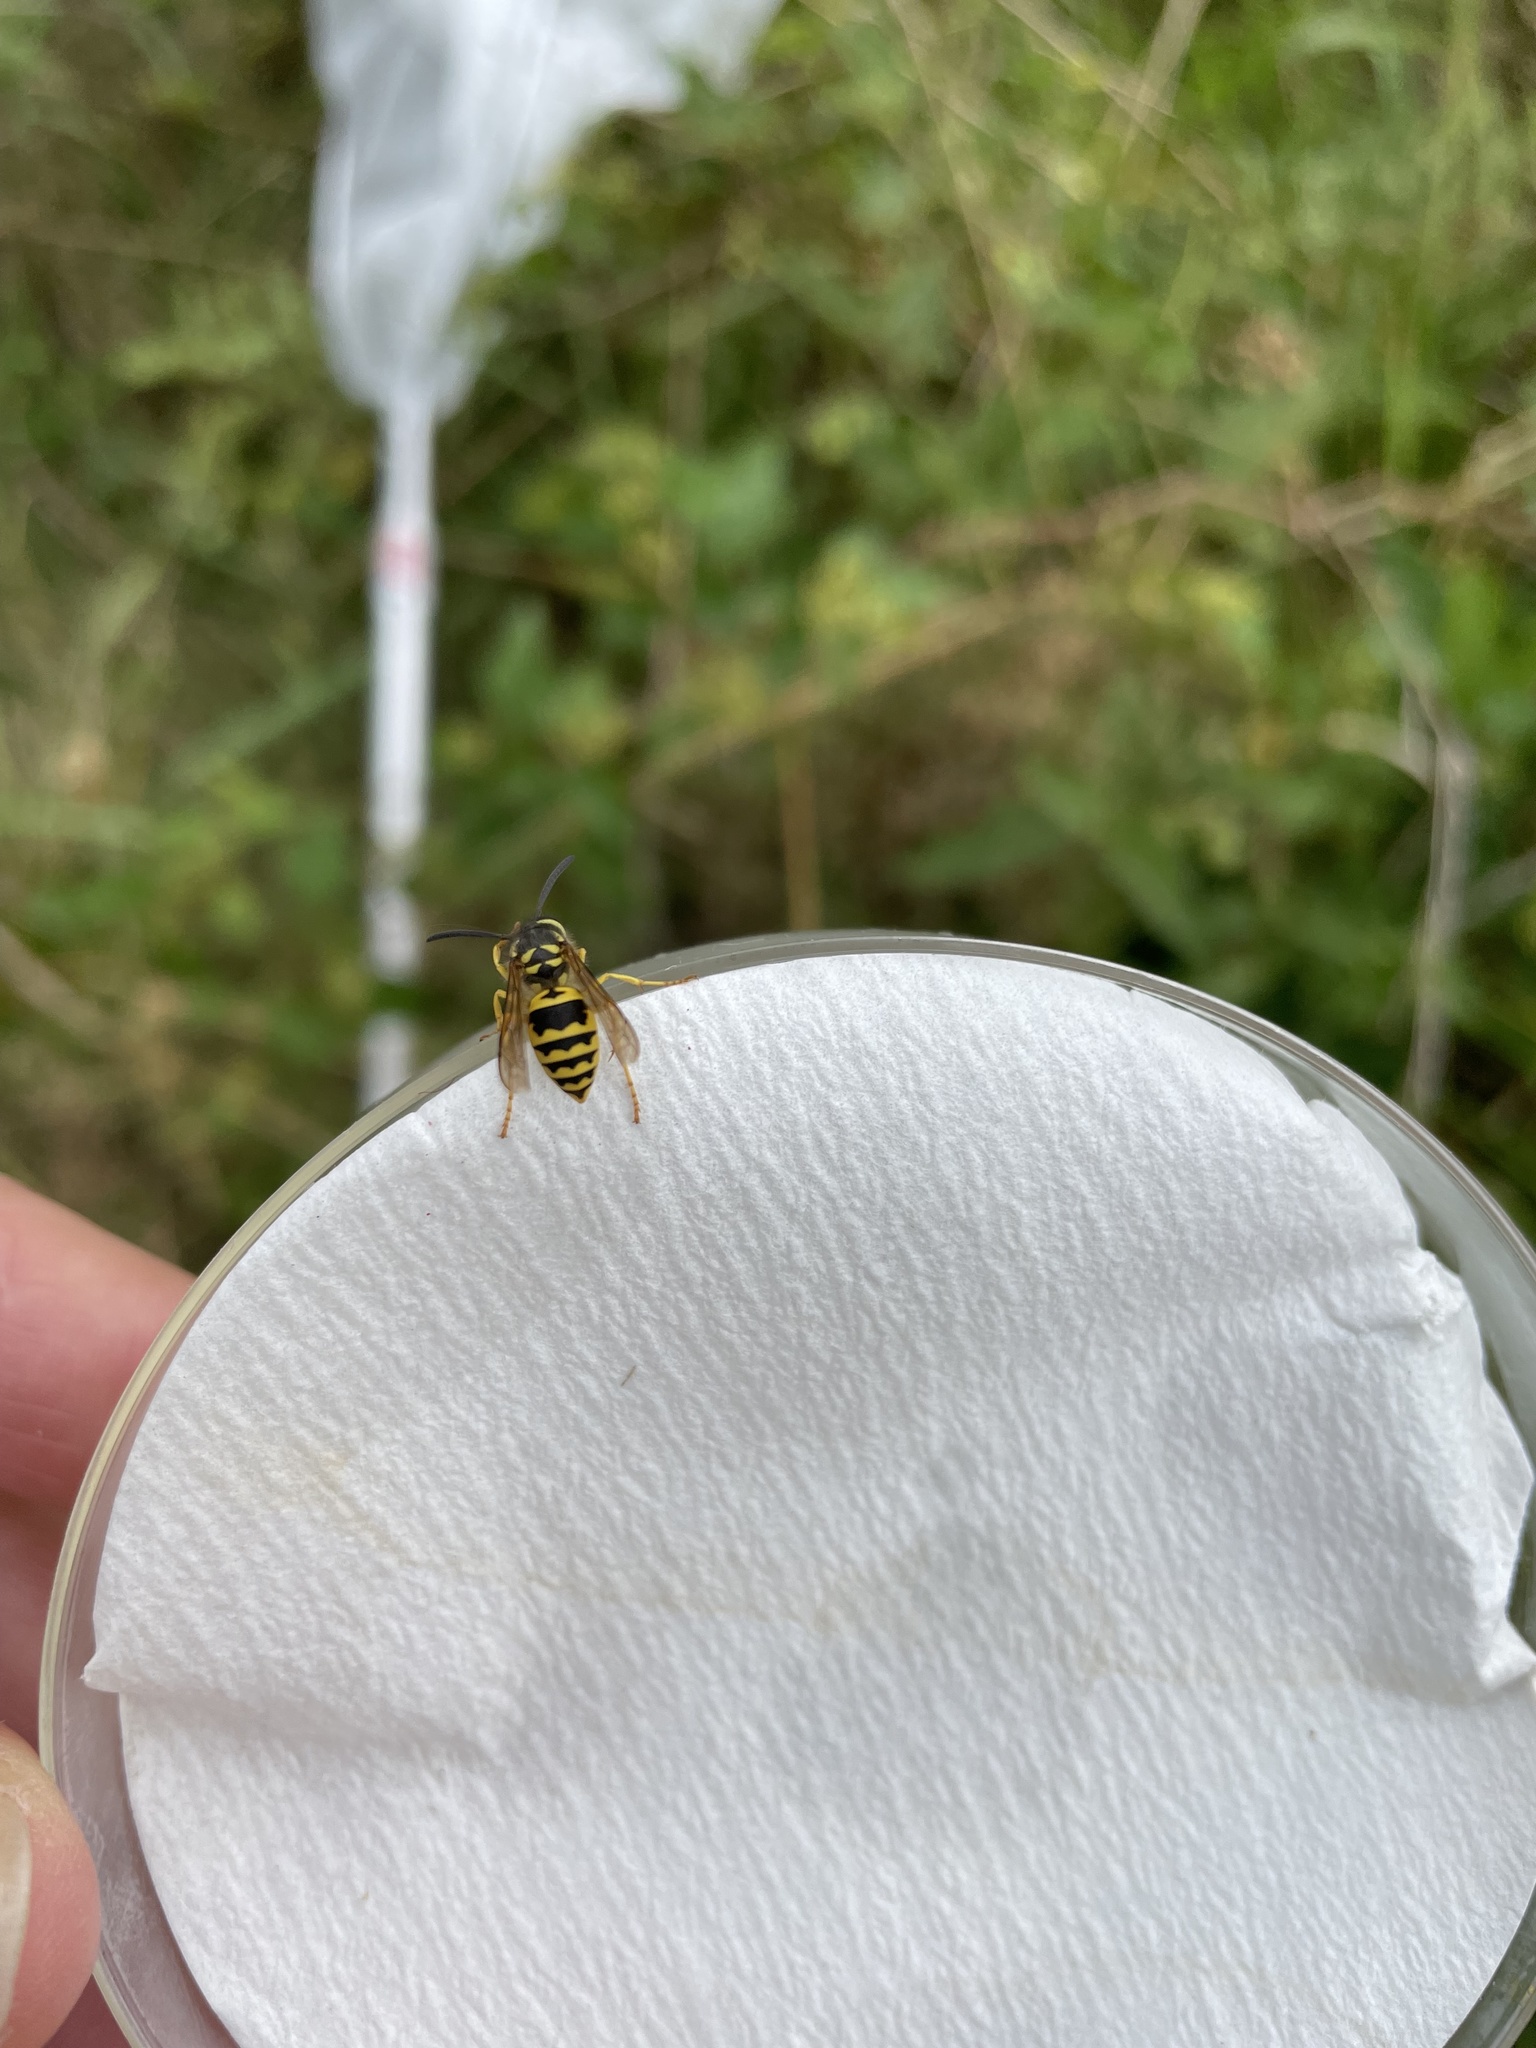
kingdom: Animalia
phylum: Arthropoda
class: Insecta
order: Hymenoptera
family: Vespidae
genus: Vespula
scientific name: Vespula maculifrons
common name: Eastern yellowjacket
